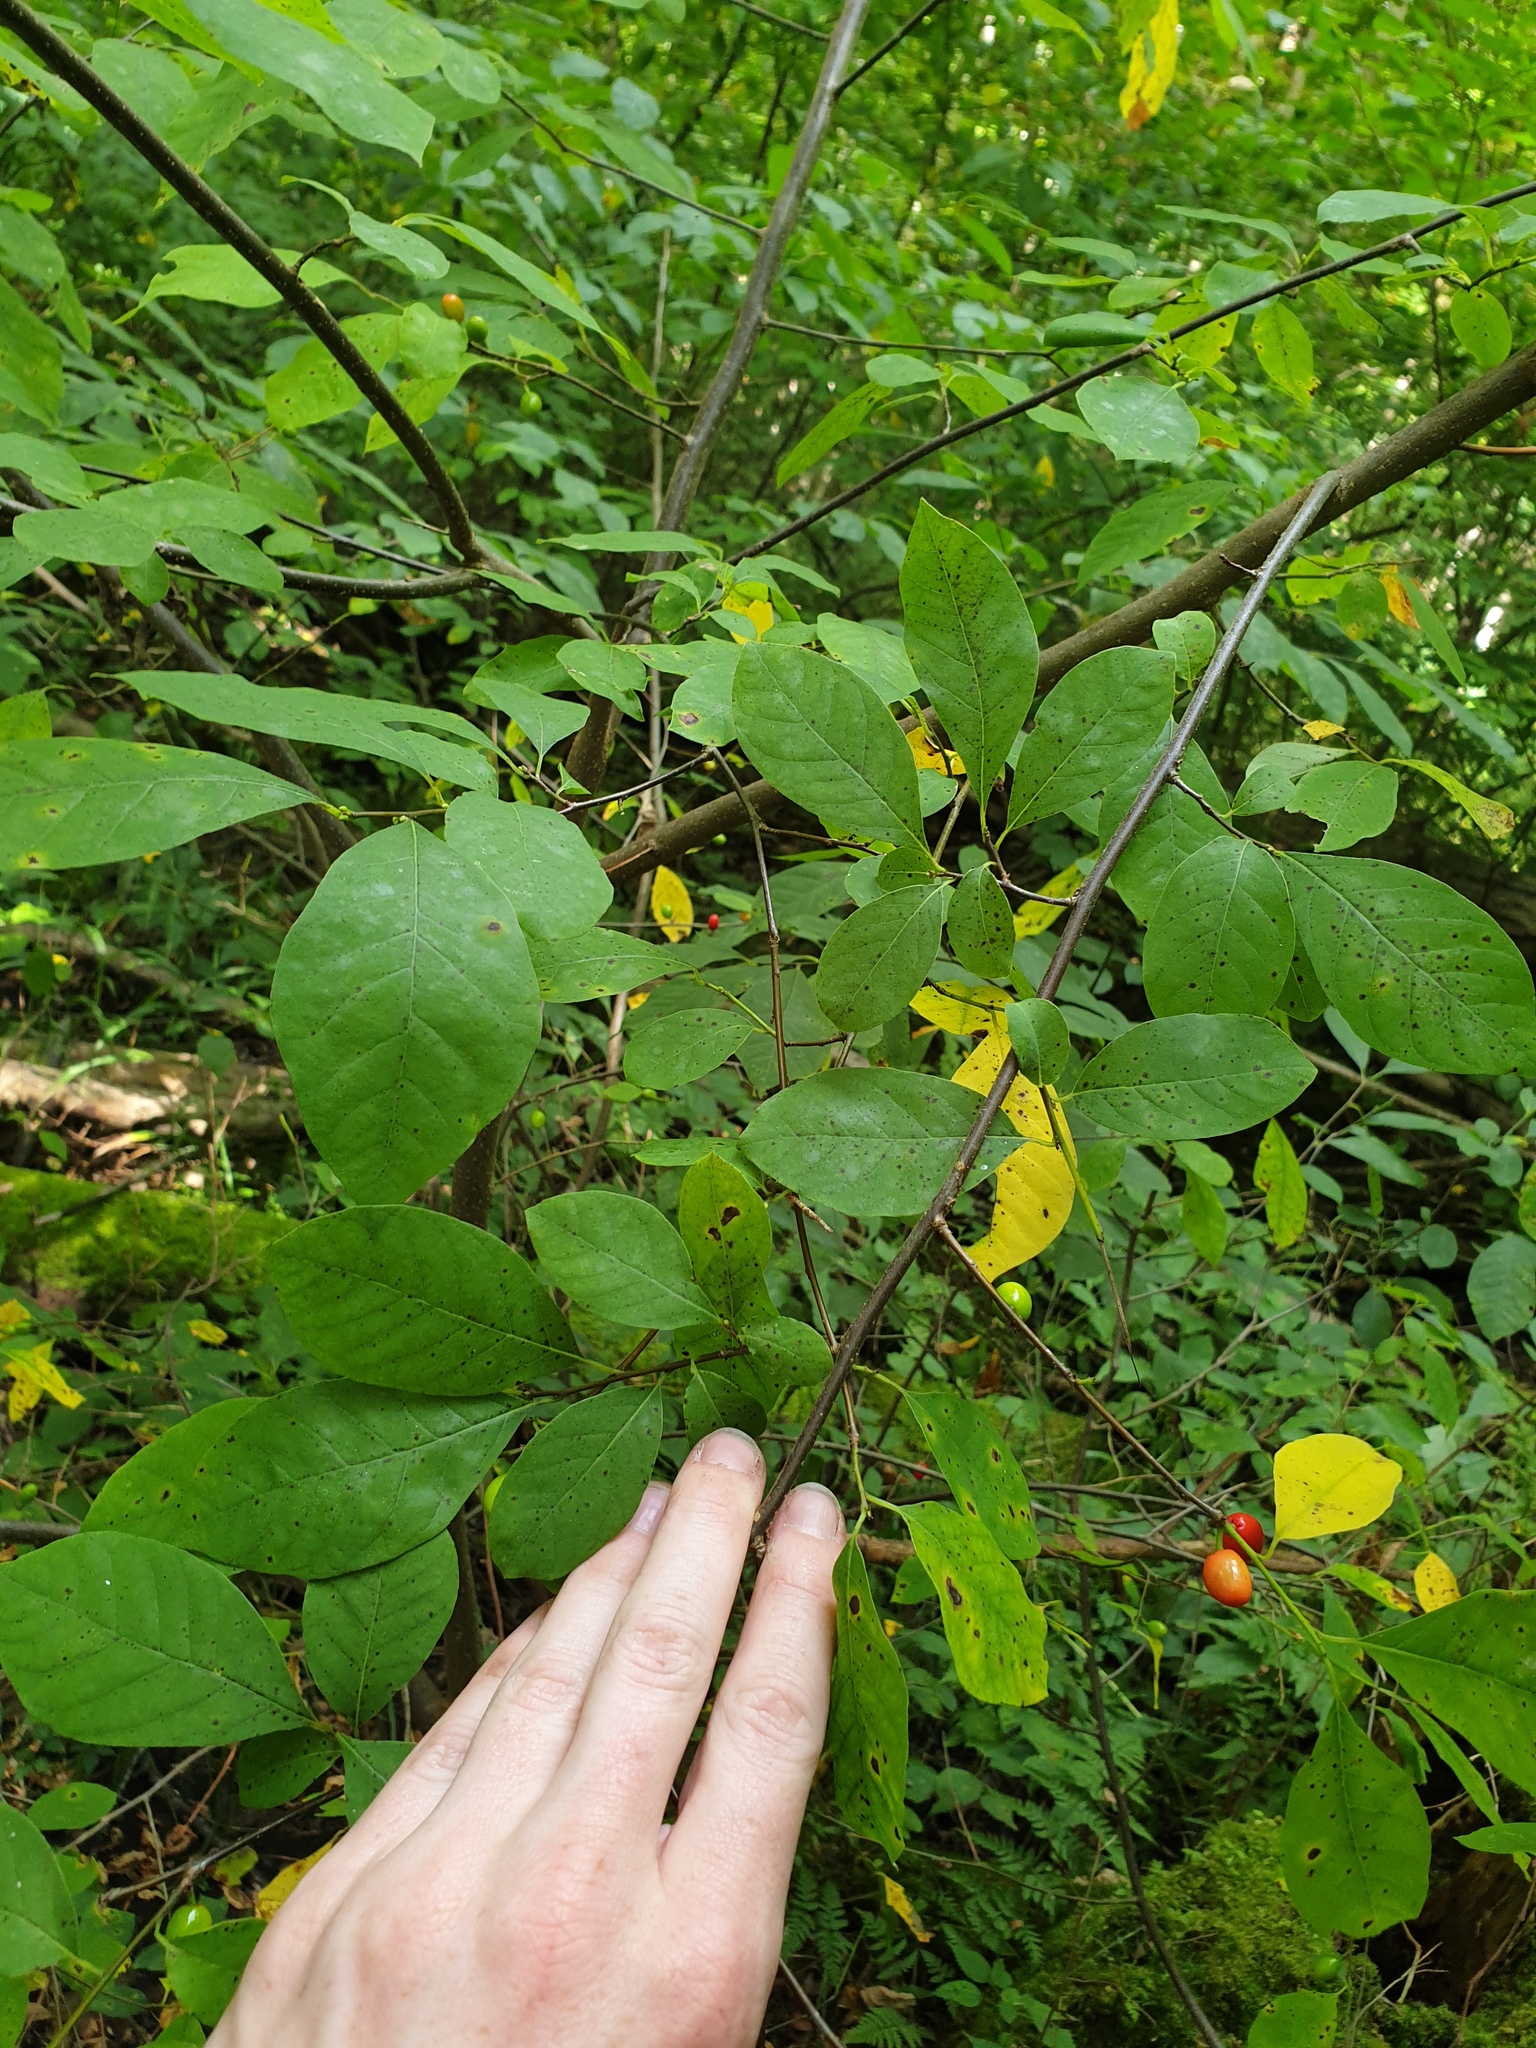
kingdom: Plantae
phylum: Tracheophyta
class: Magnoliopsida
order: Laurales
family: Lauraceae
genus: Lindera
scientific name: Lindera benzoin
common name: Spicebush
